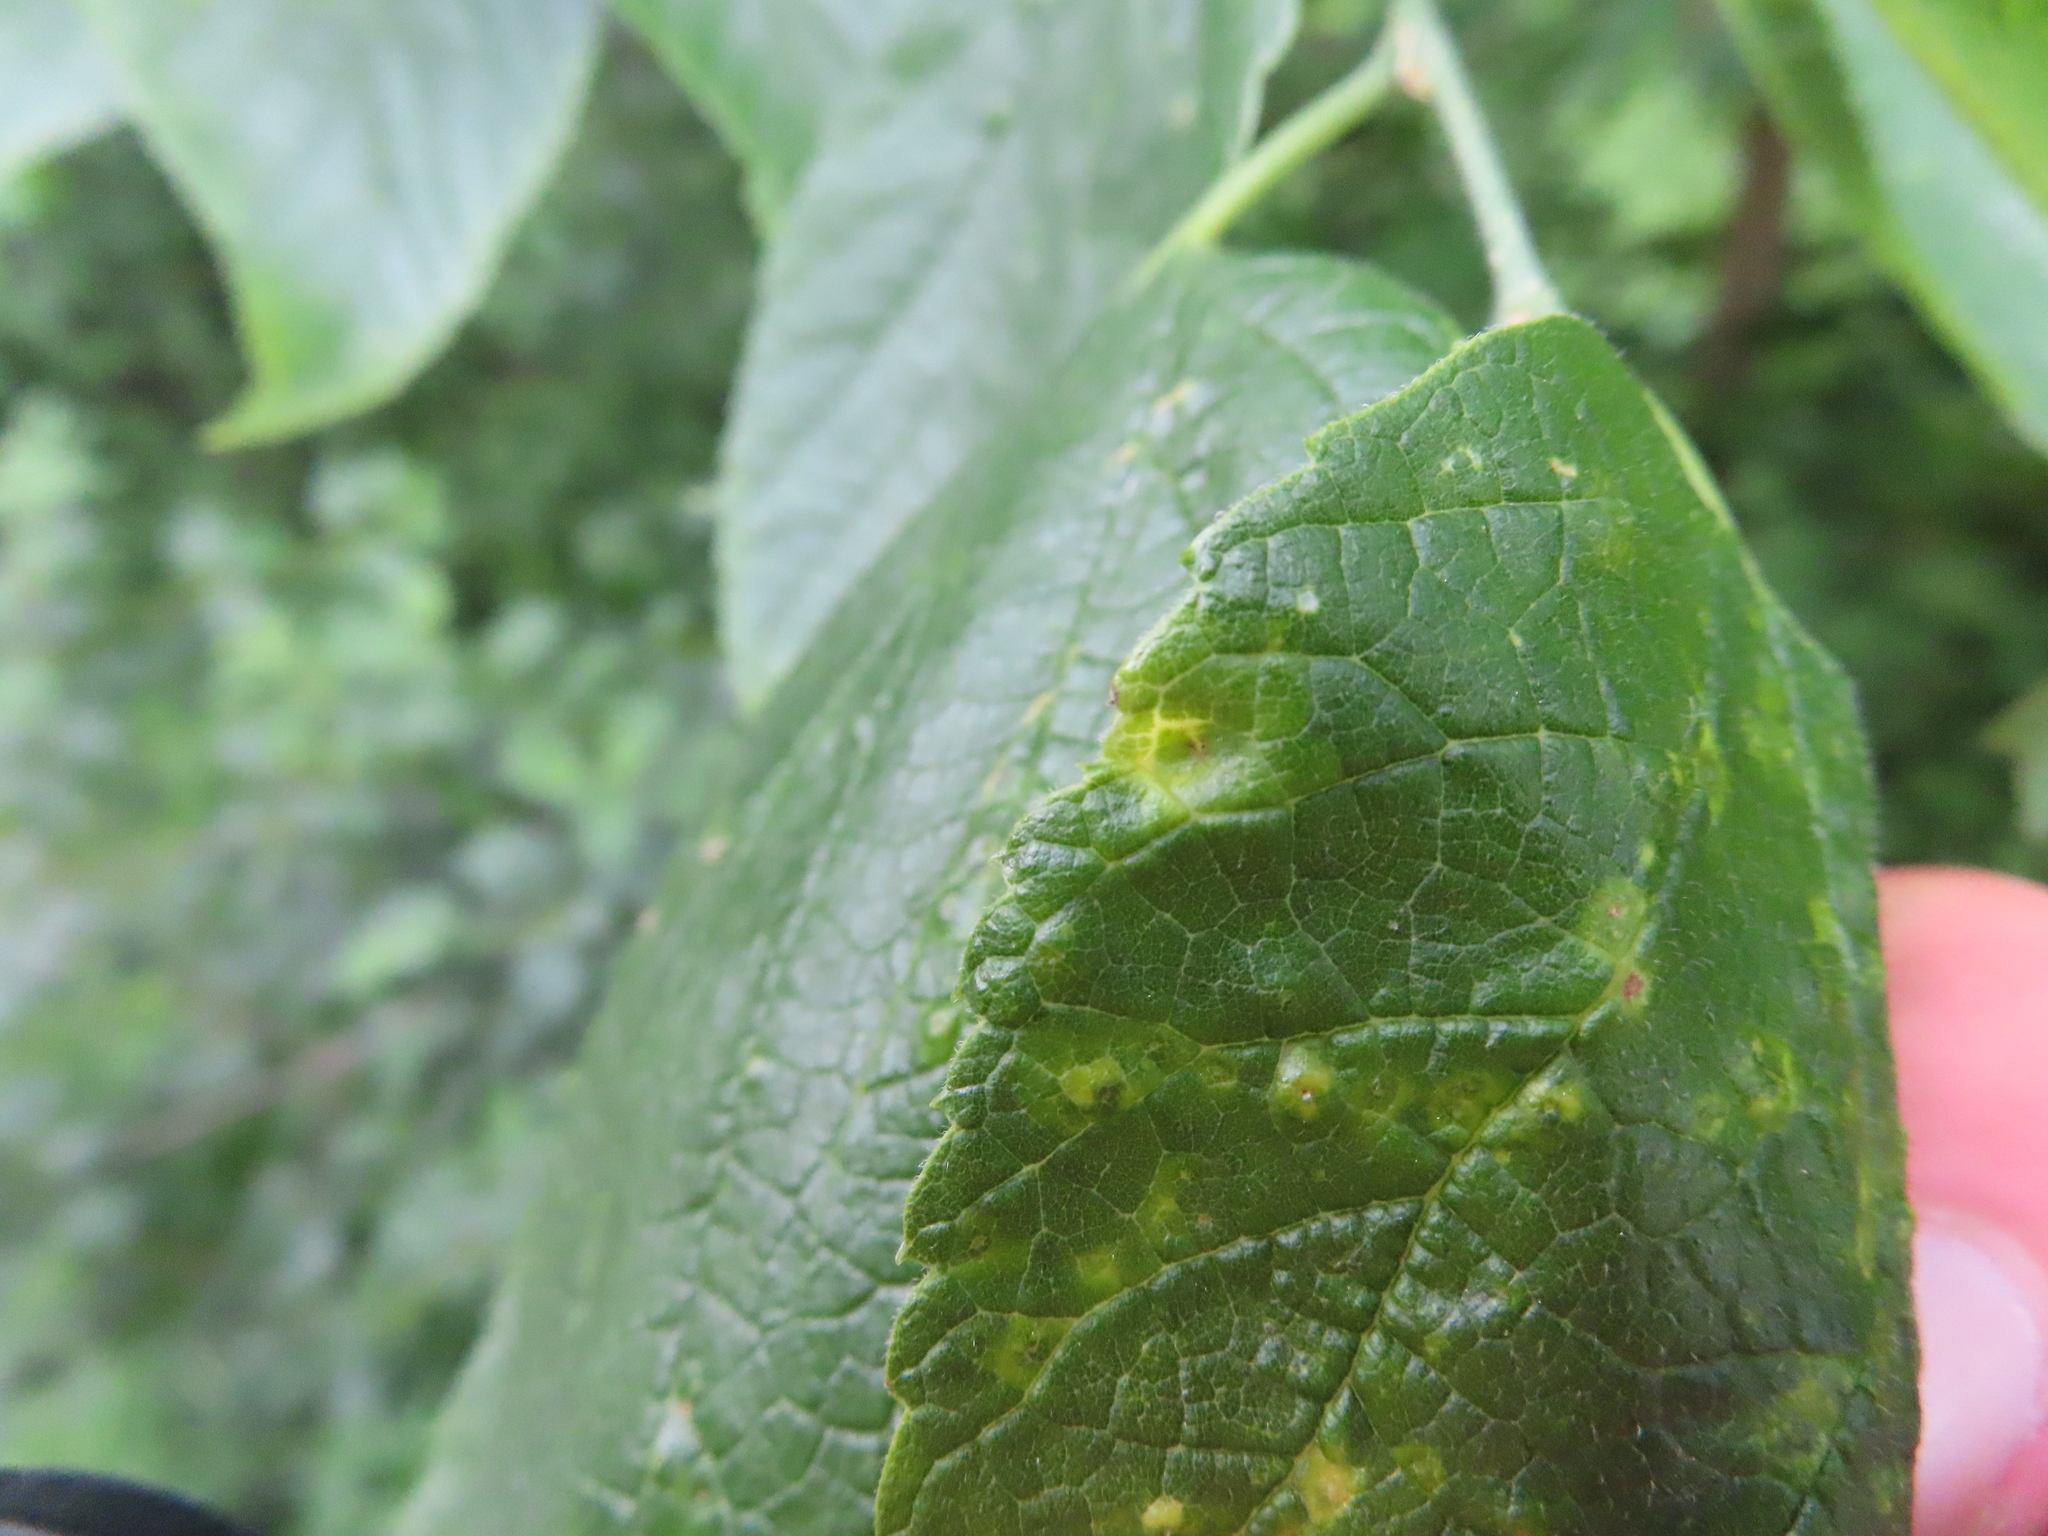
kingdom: Animalia
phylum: Arthropoda
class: Insecta
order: Hemiptera
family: Aphalaridae
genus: Pachypsylla
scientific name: Pachypsylla celtidismamma
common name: Hackberry nipplegall psyllid
